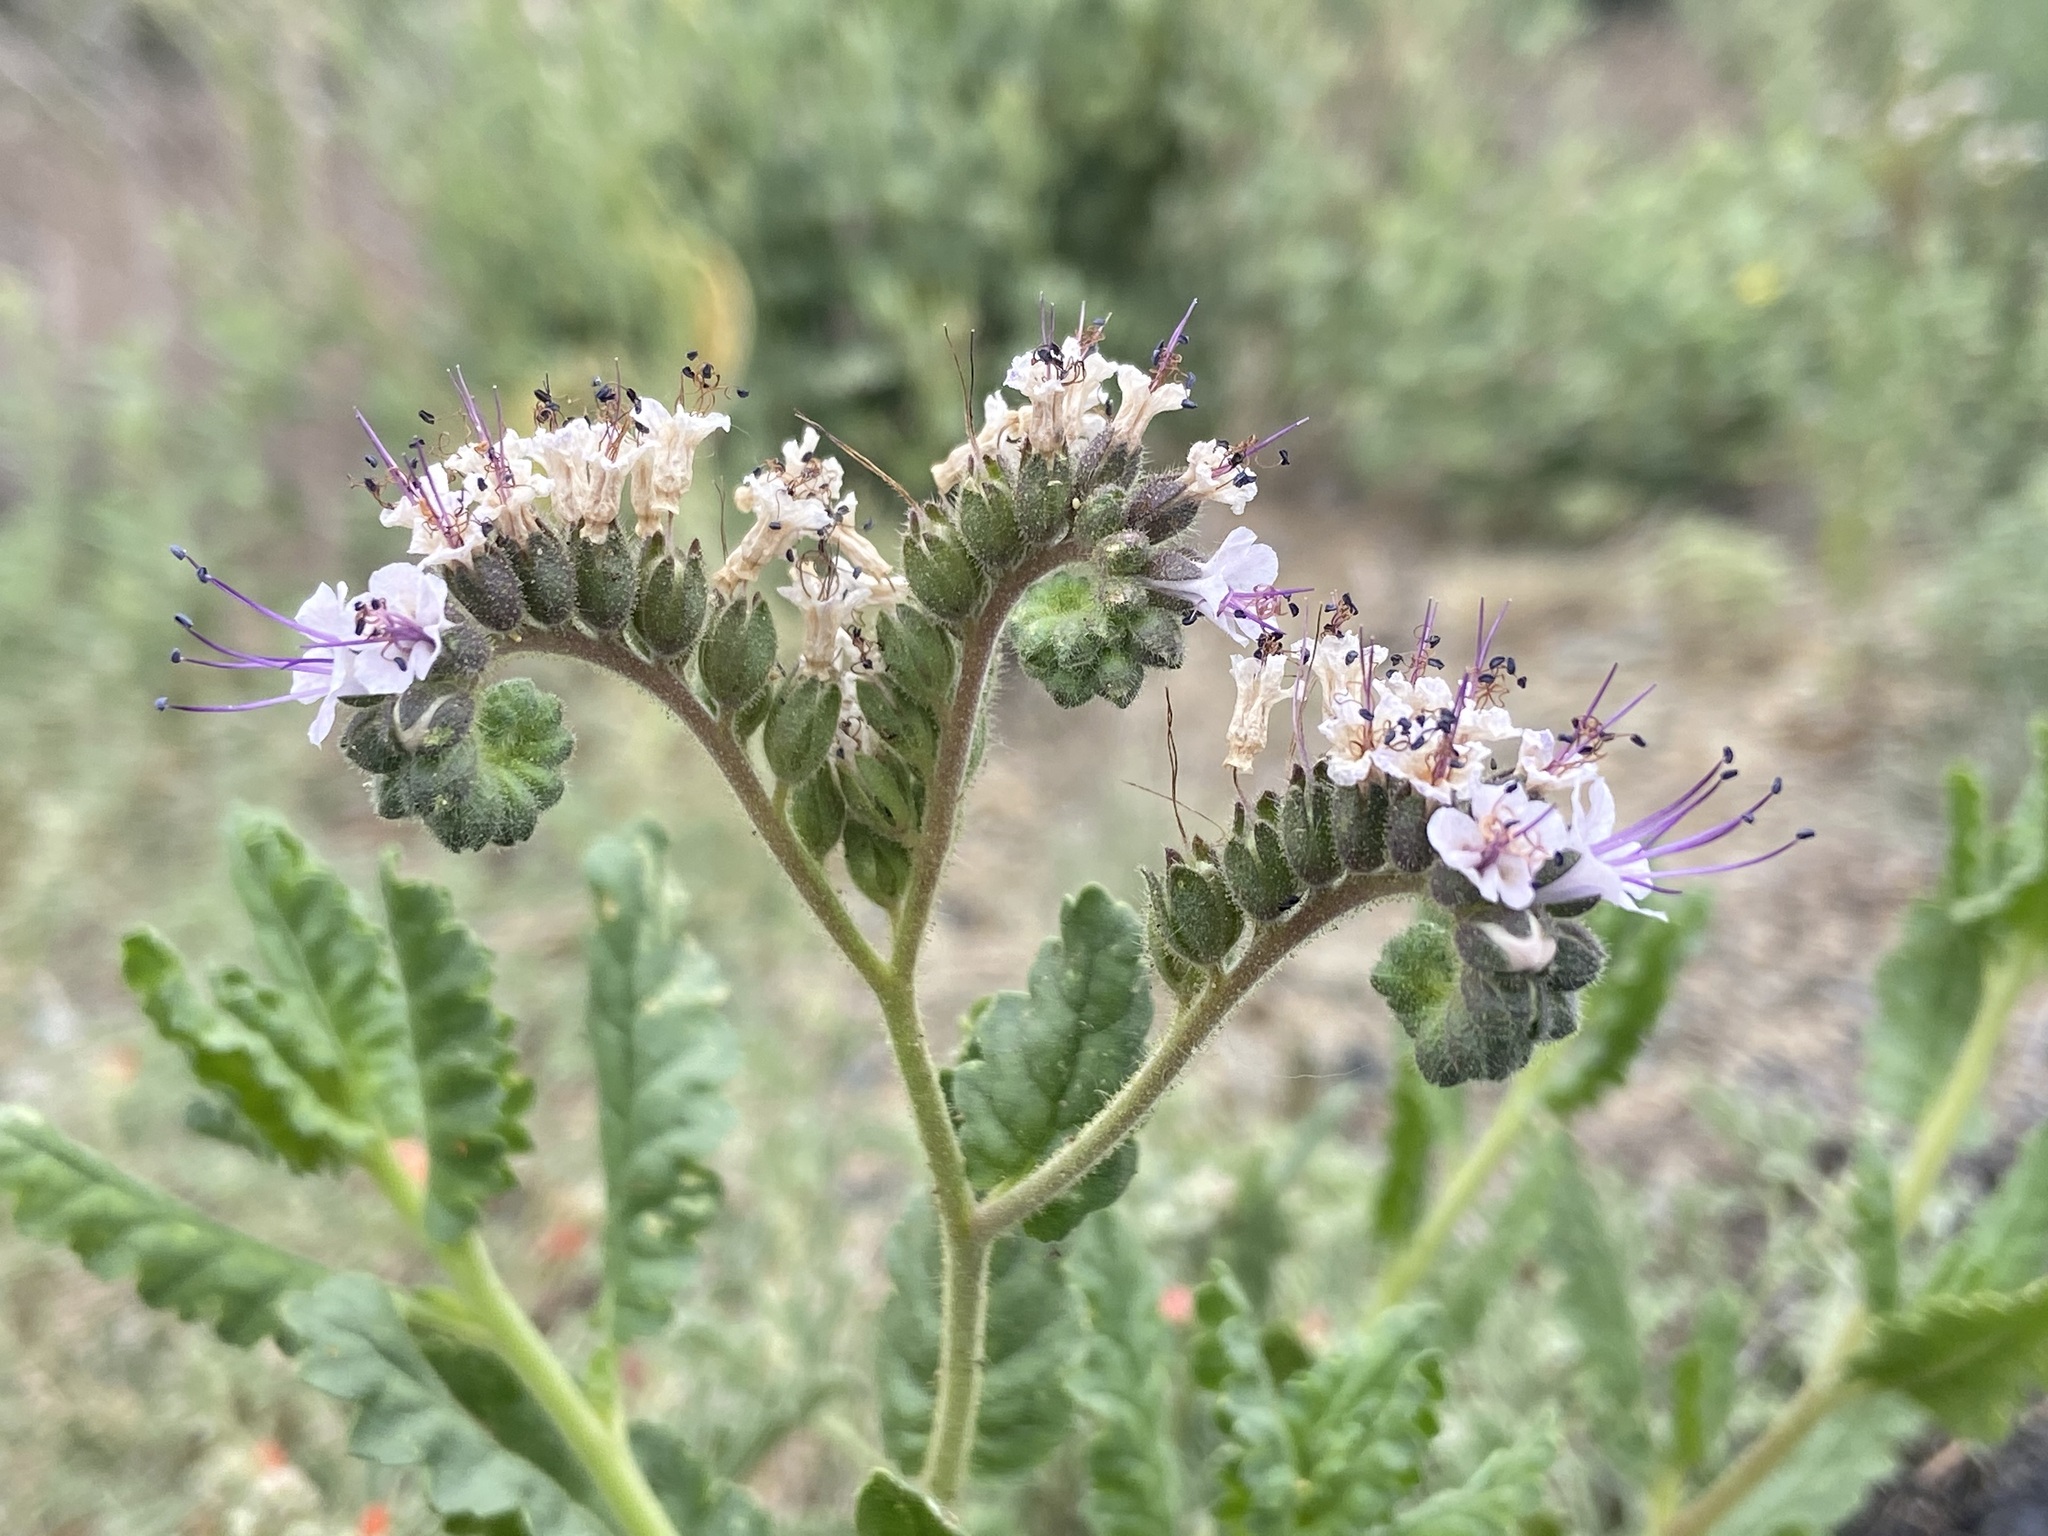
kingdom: Plantae
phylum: Tracheophyta
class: Magnoliopsida
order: Boraginales
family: Hydrophyllaceae
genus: Phacelia
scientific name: Phacelia integrifolia
